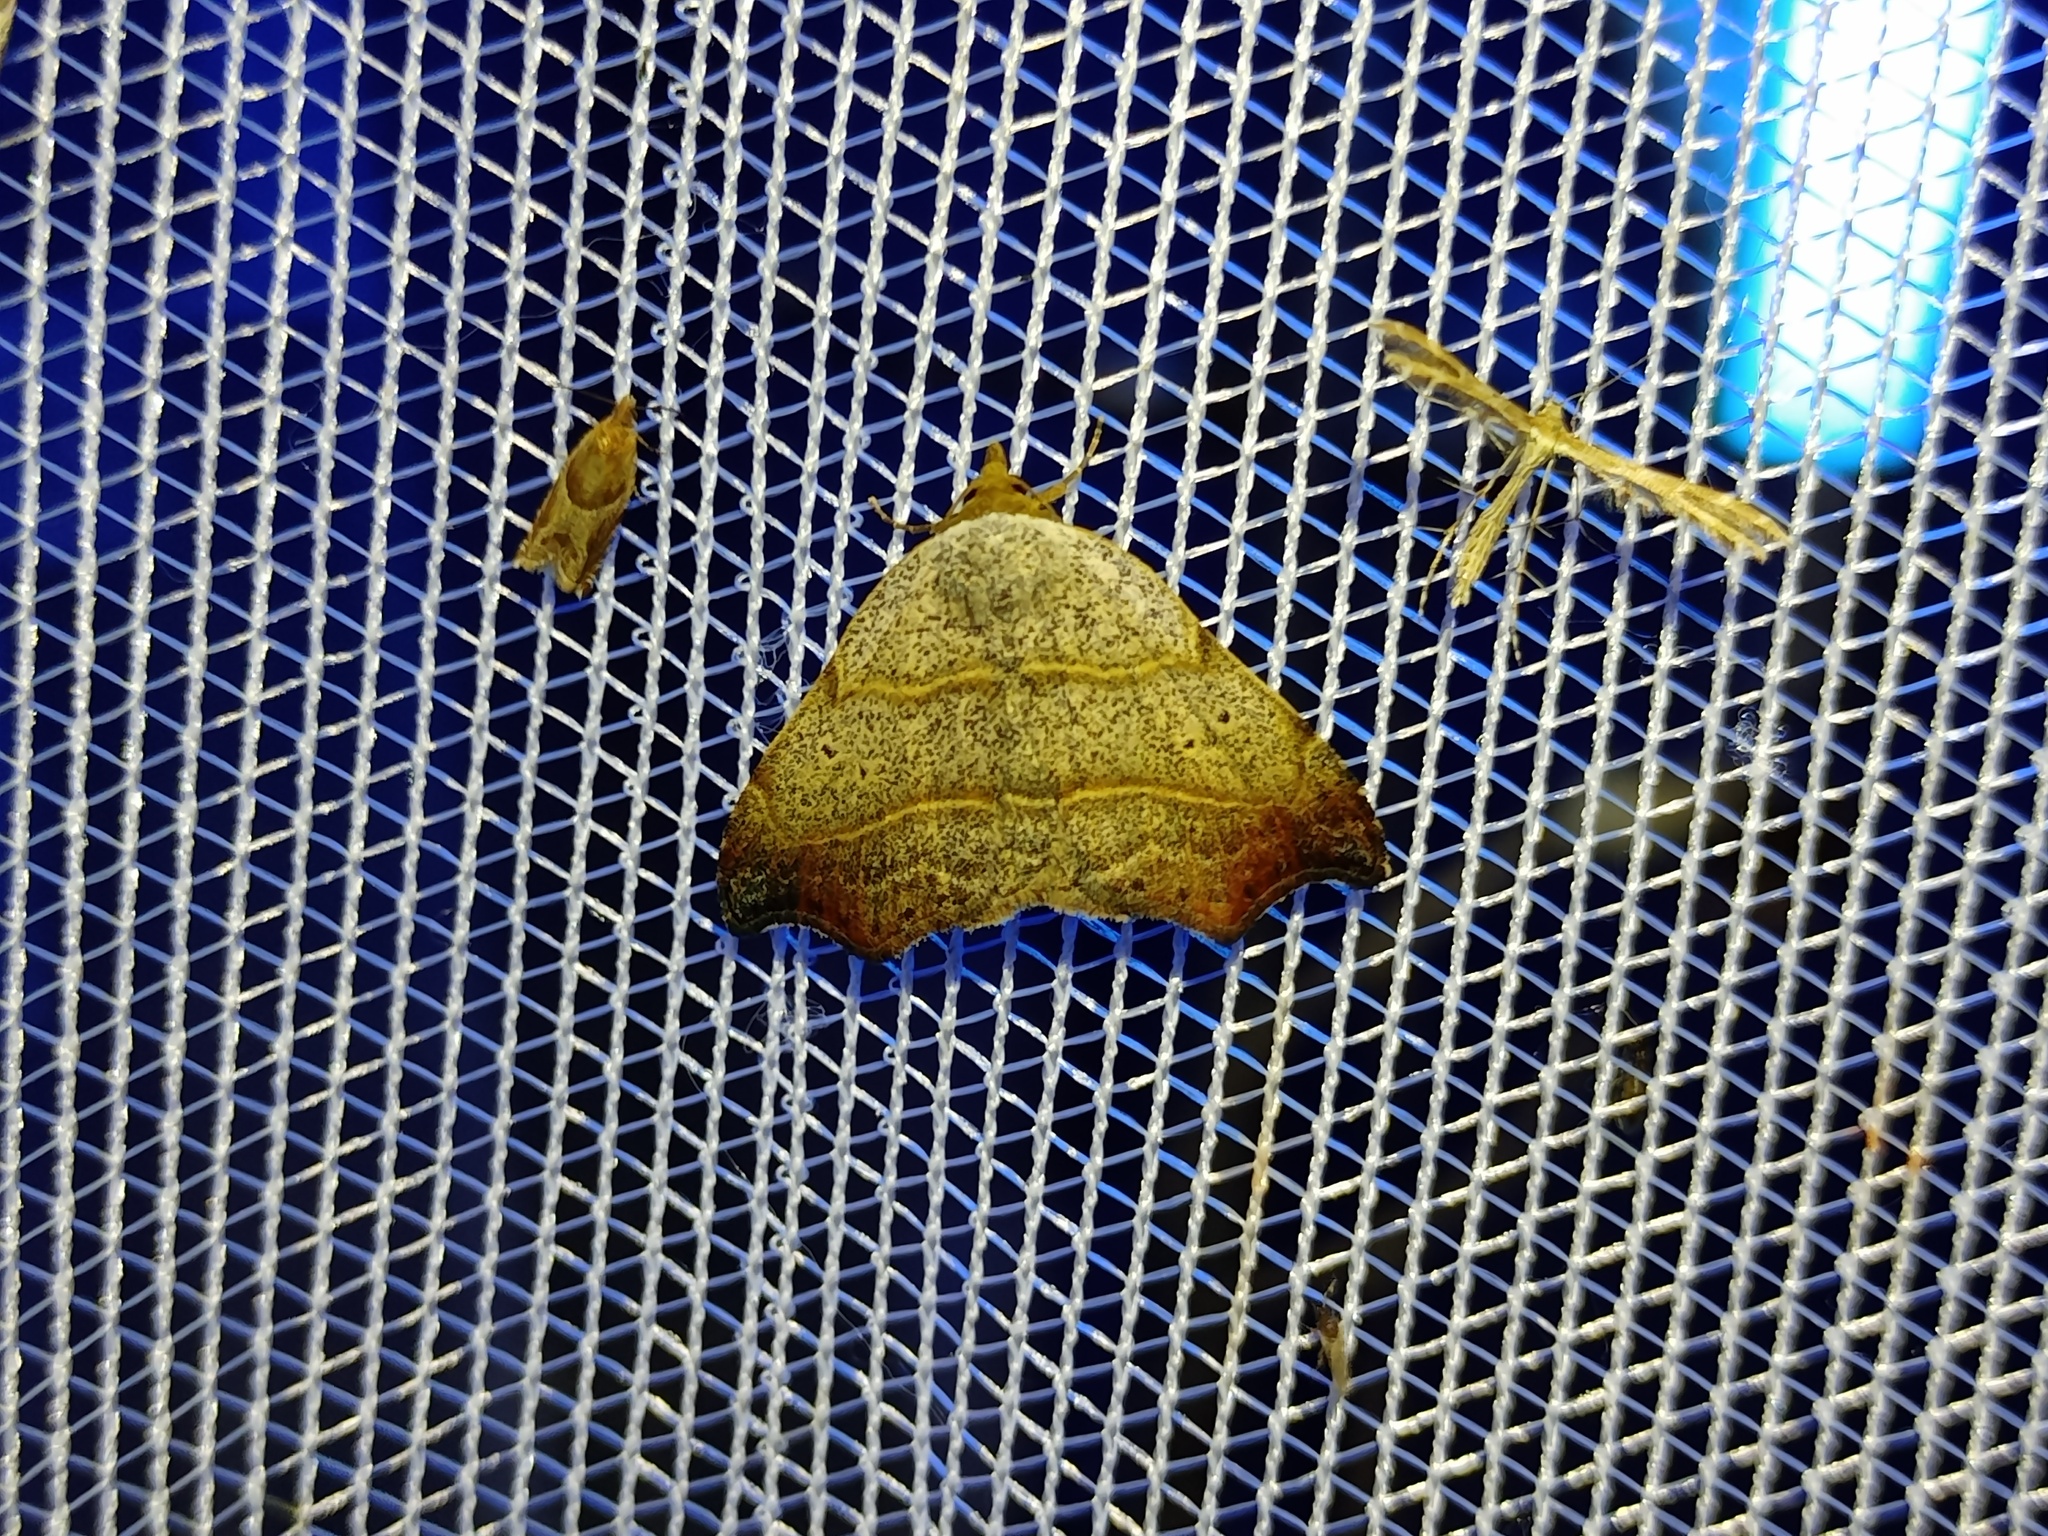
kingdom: Animalia
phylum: Arthropoda
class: Insecta
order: Lepidoptera
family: Erebidae
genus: Laspeyria
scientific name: Laspeyria flexula
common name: Beautiful hook-tip
